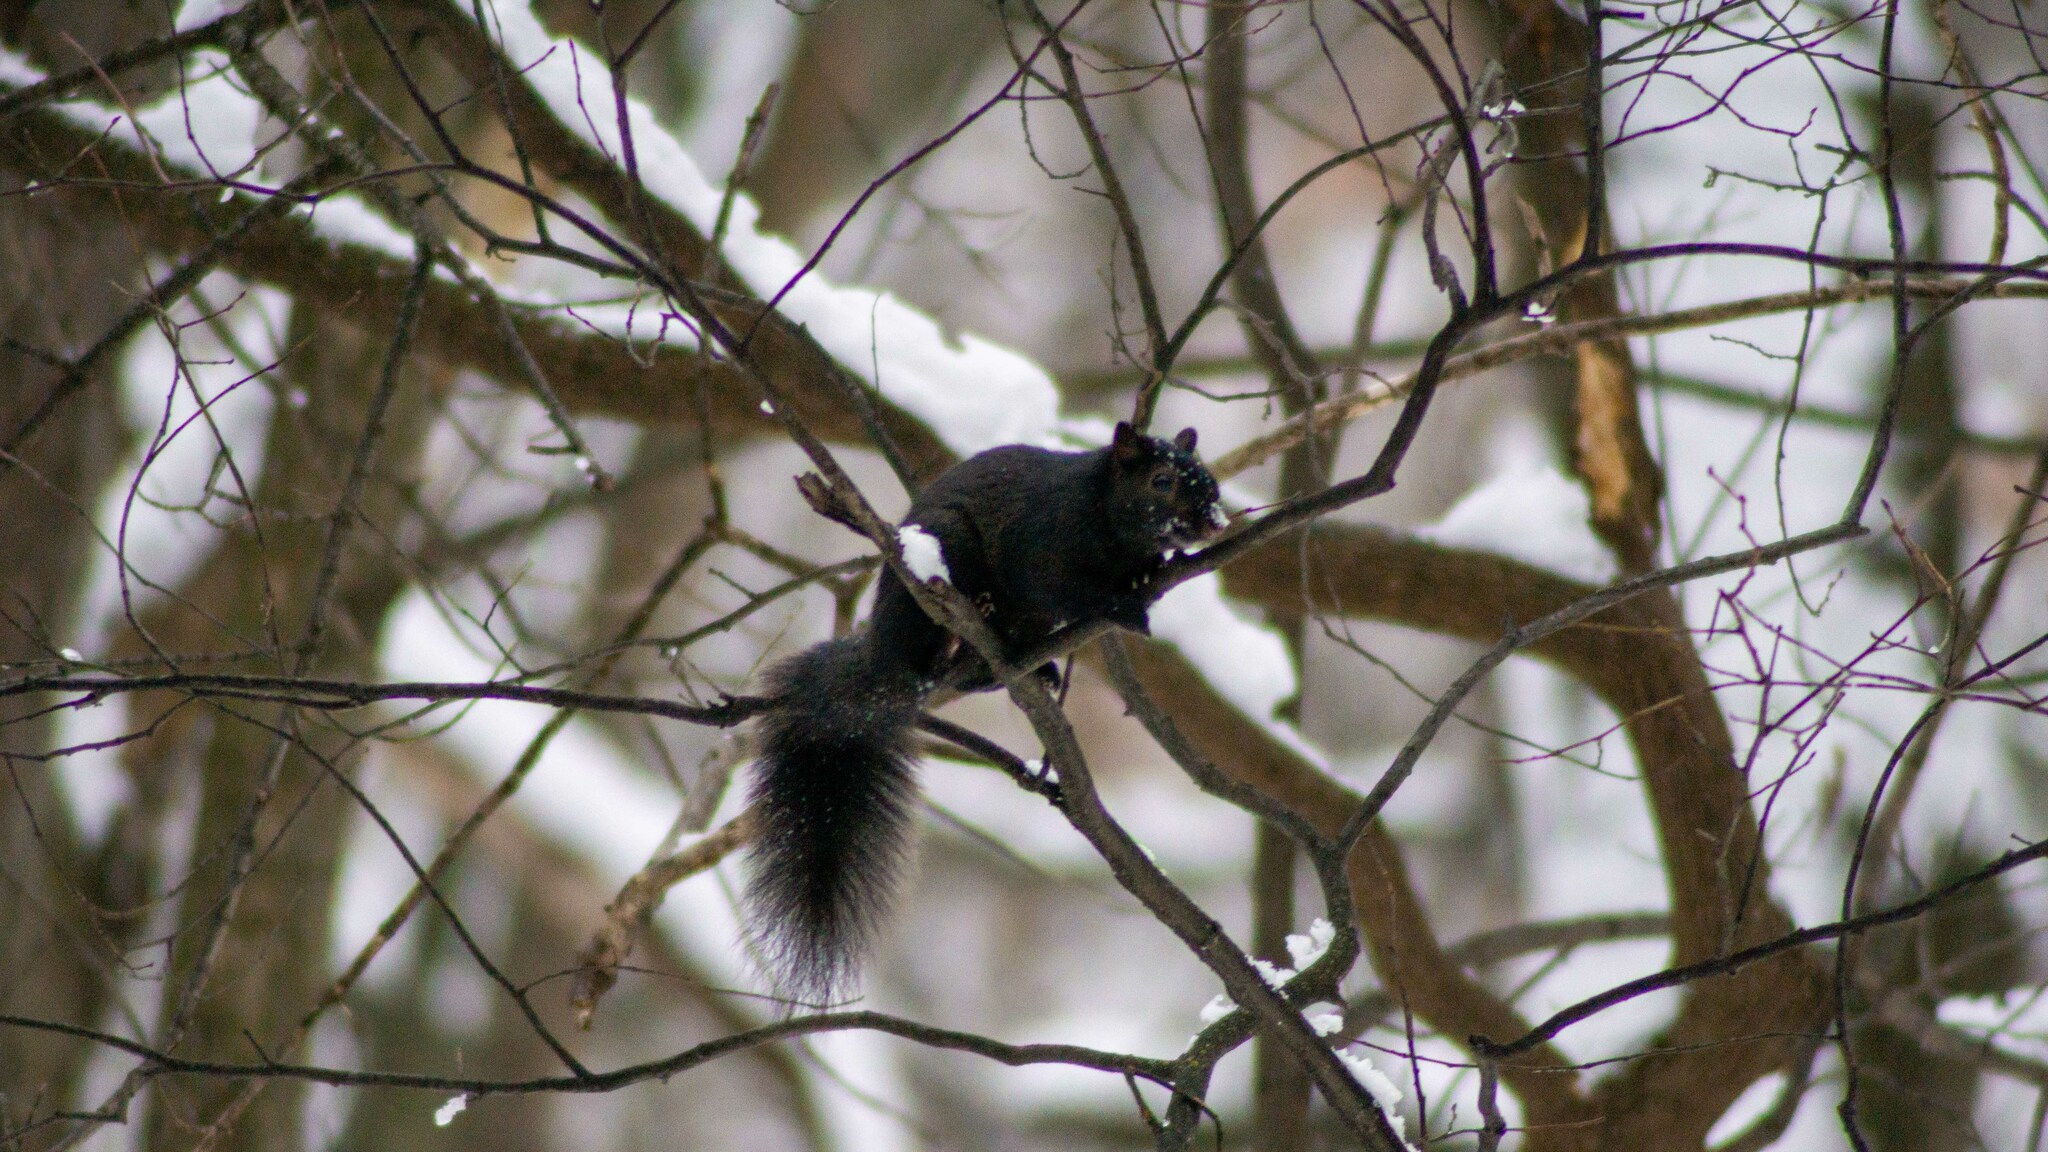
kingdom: Animalia
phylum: Chordata
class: Mammalia
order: Rodentia
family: Sciuridae
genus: Sciurus
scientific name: Sciurus carolinensis
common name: Eastern gray squirrel
